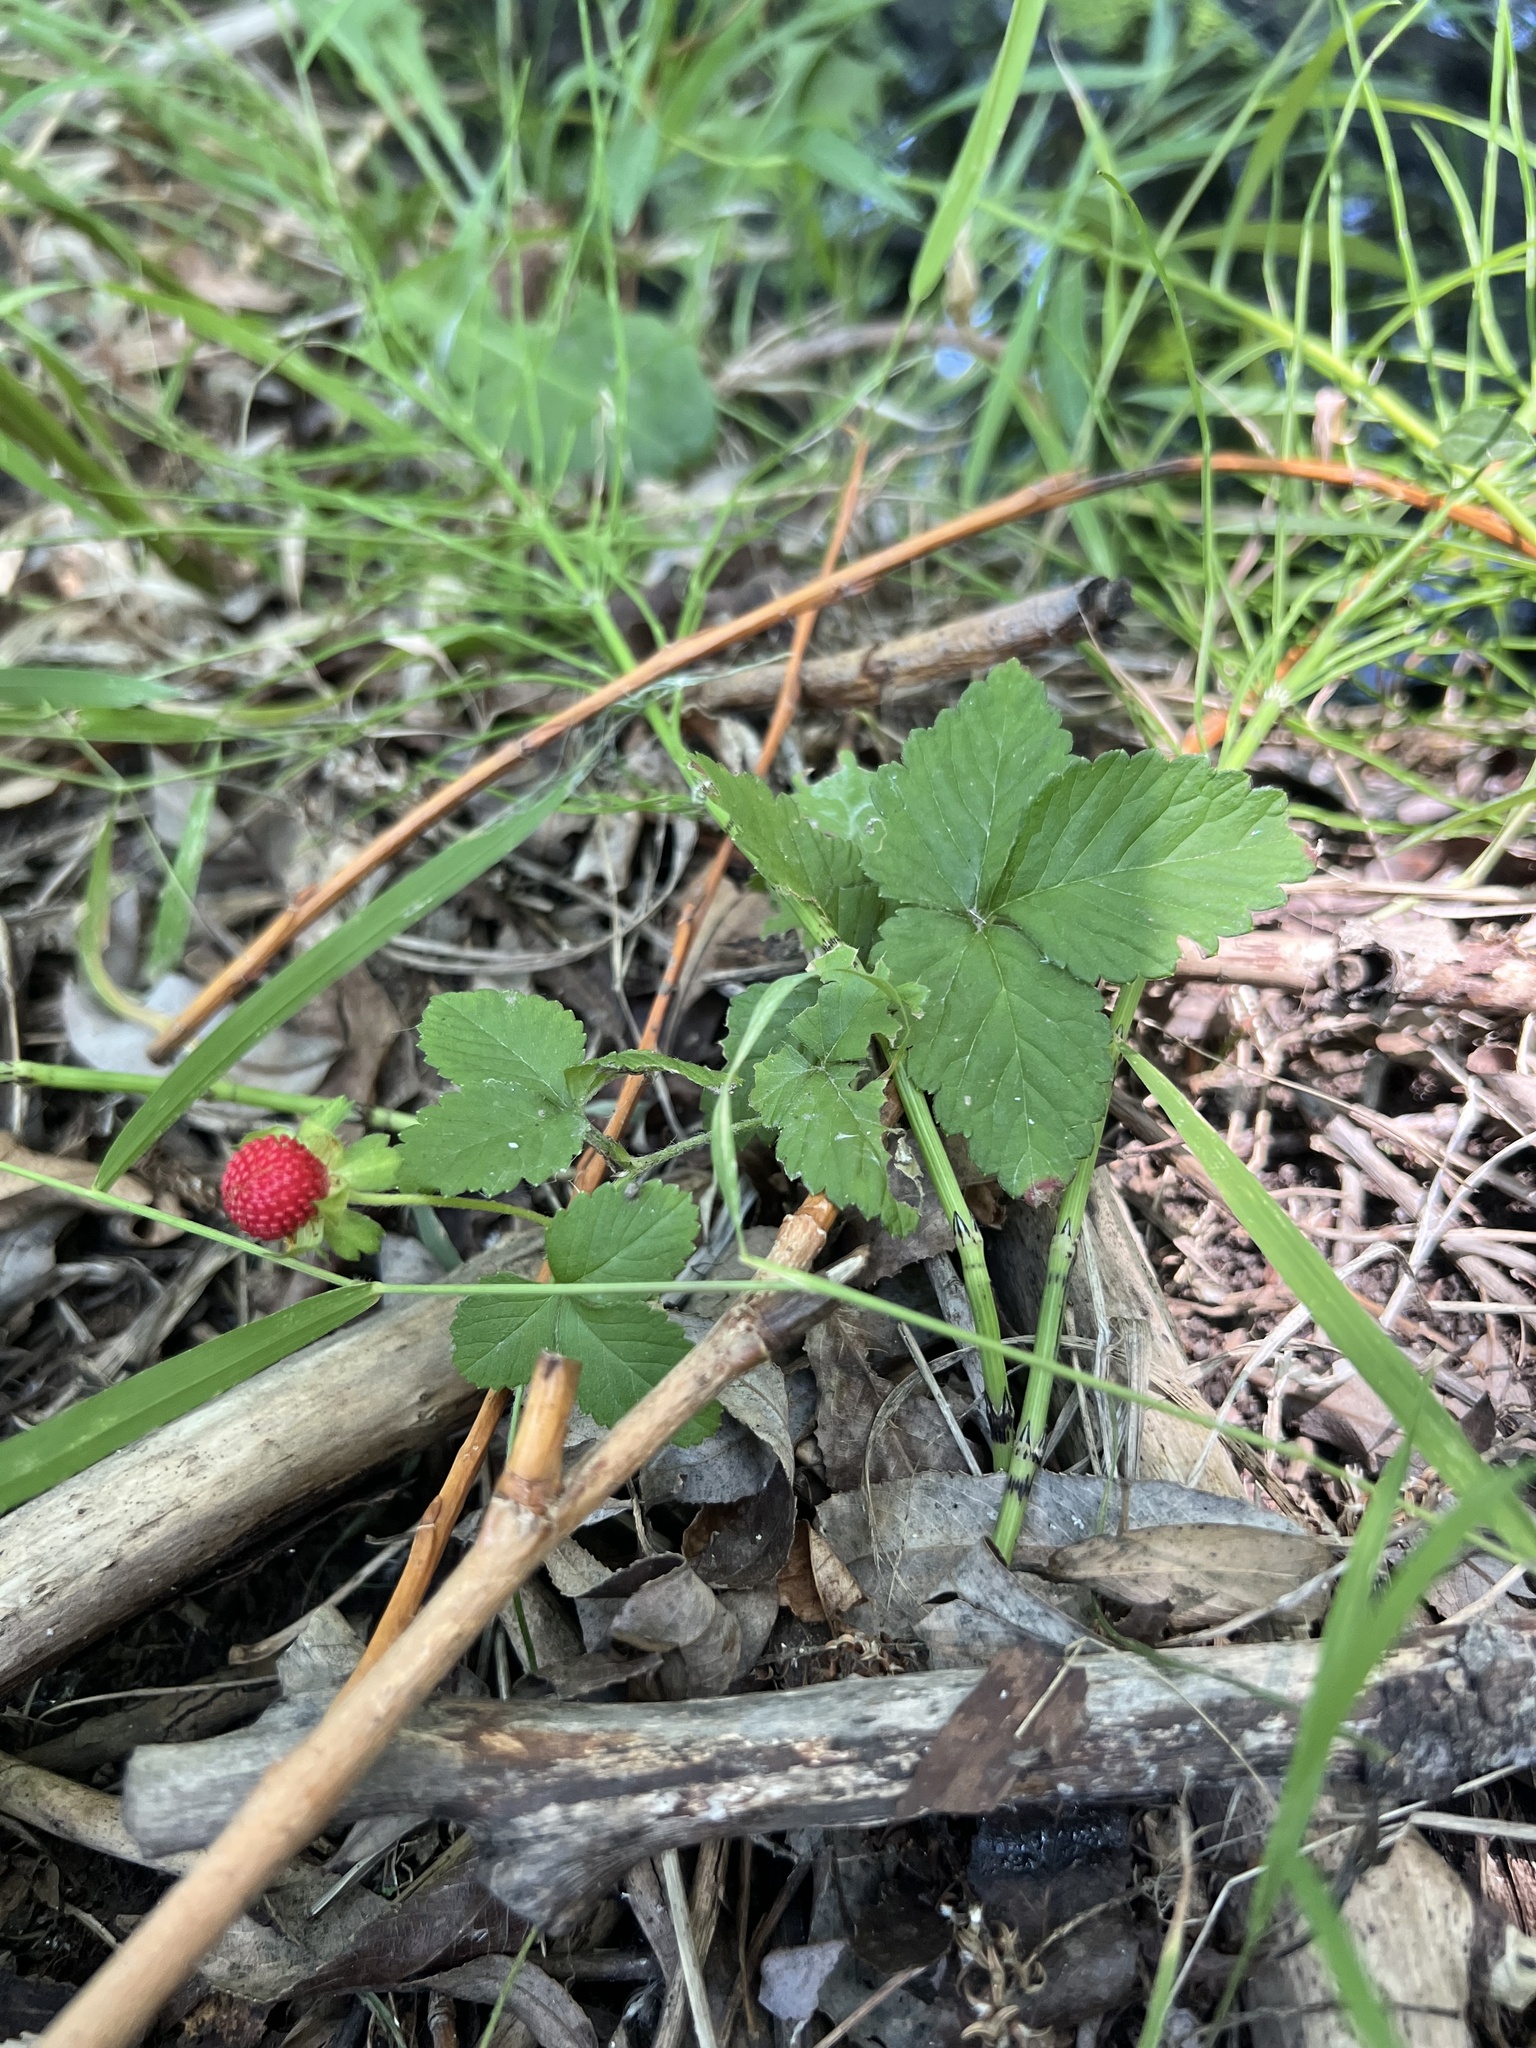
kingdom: Plantae
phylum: Tracheophyta
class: Magnoliopsida
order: Rosales
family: Rosaceae
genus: Potentilla
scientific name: Potentilla indica
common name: Yellow-flowered strawberry
